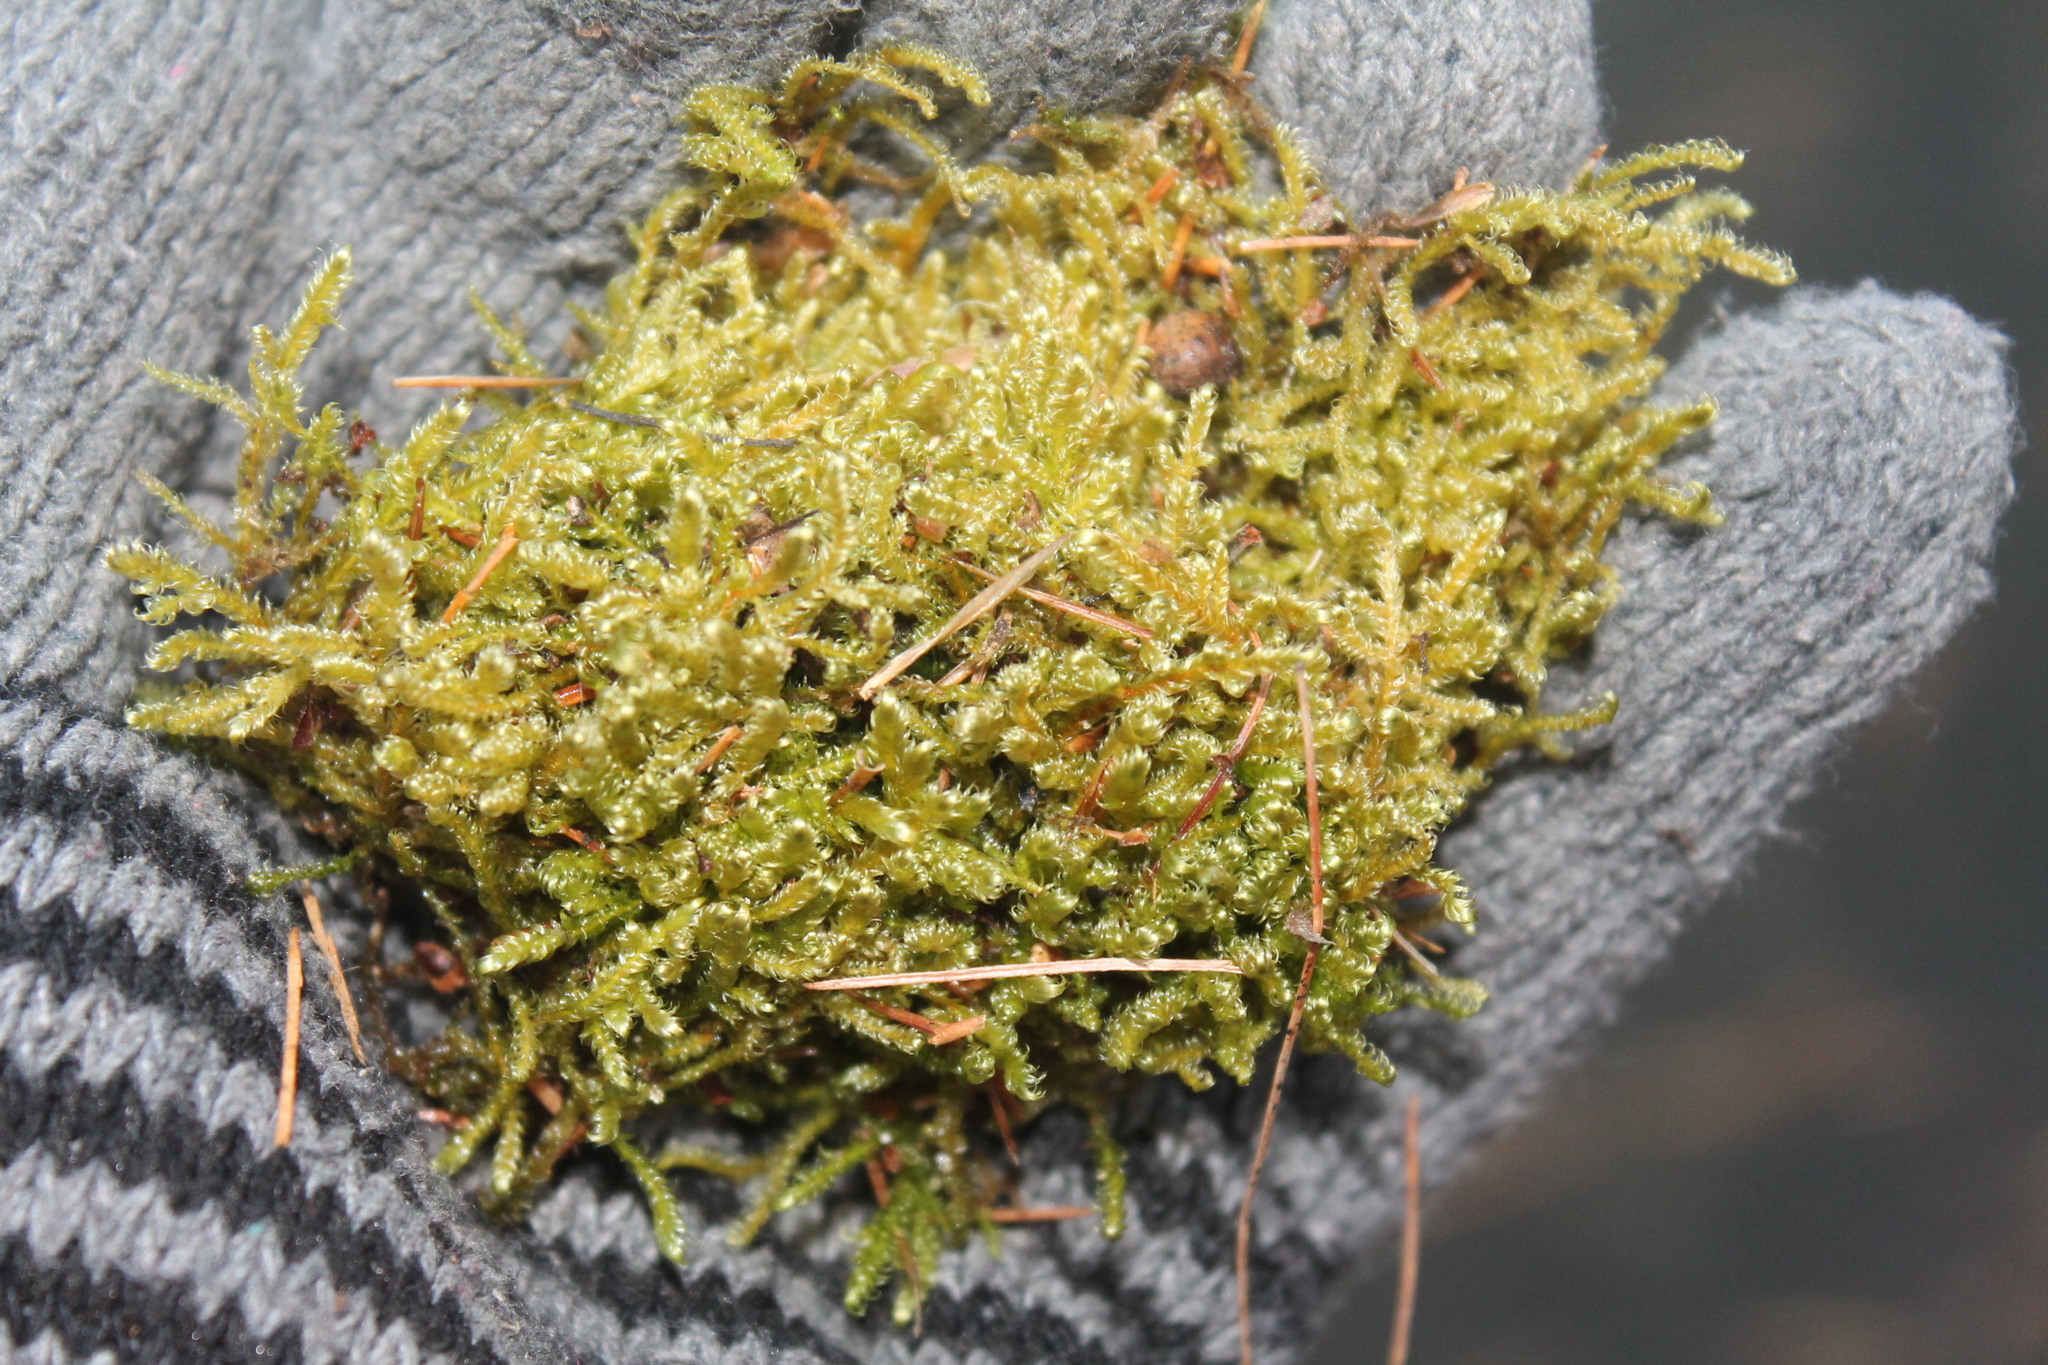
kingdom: Plantae
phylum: Bryophyta
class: Bryopsida
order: Hypnales
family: Pylaisiaceae
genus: Calliergonella
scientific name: Calliergonella lindbergii
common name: Lindberg's plait-moss
